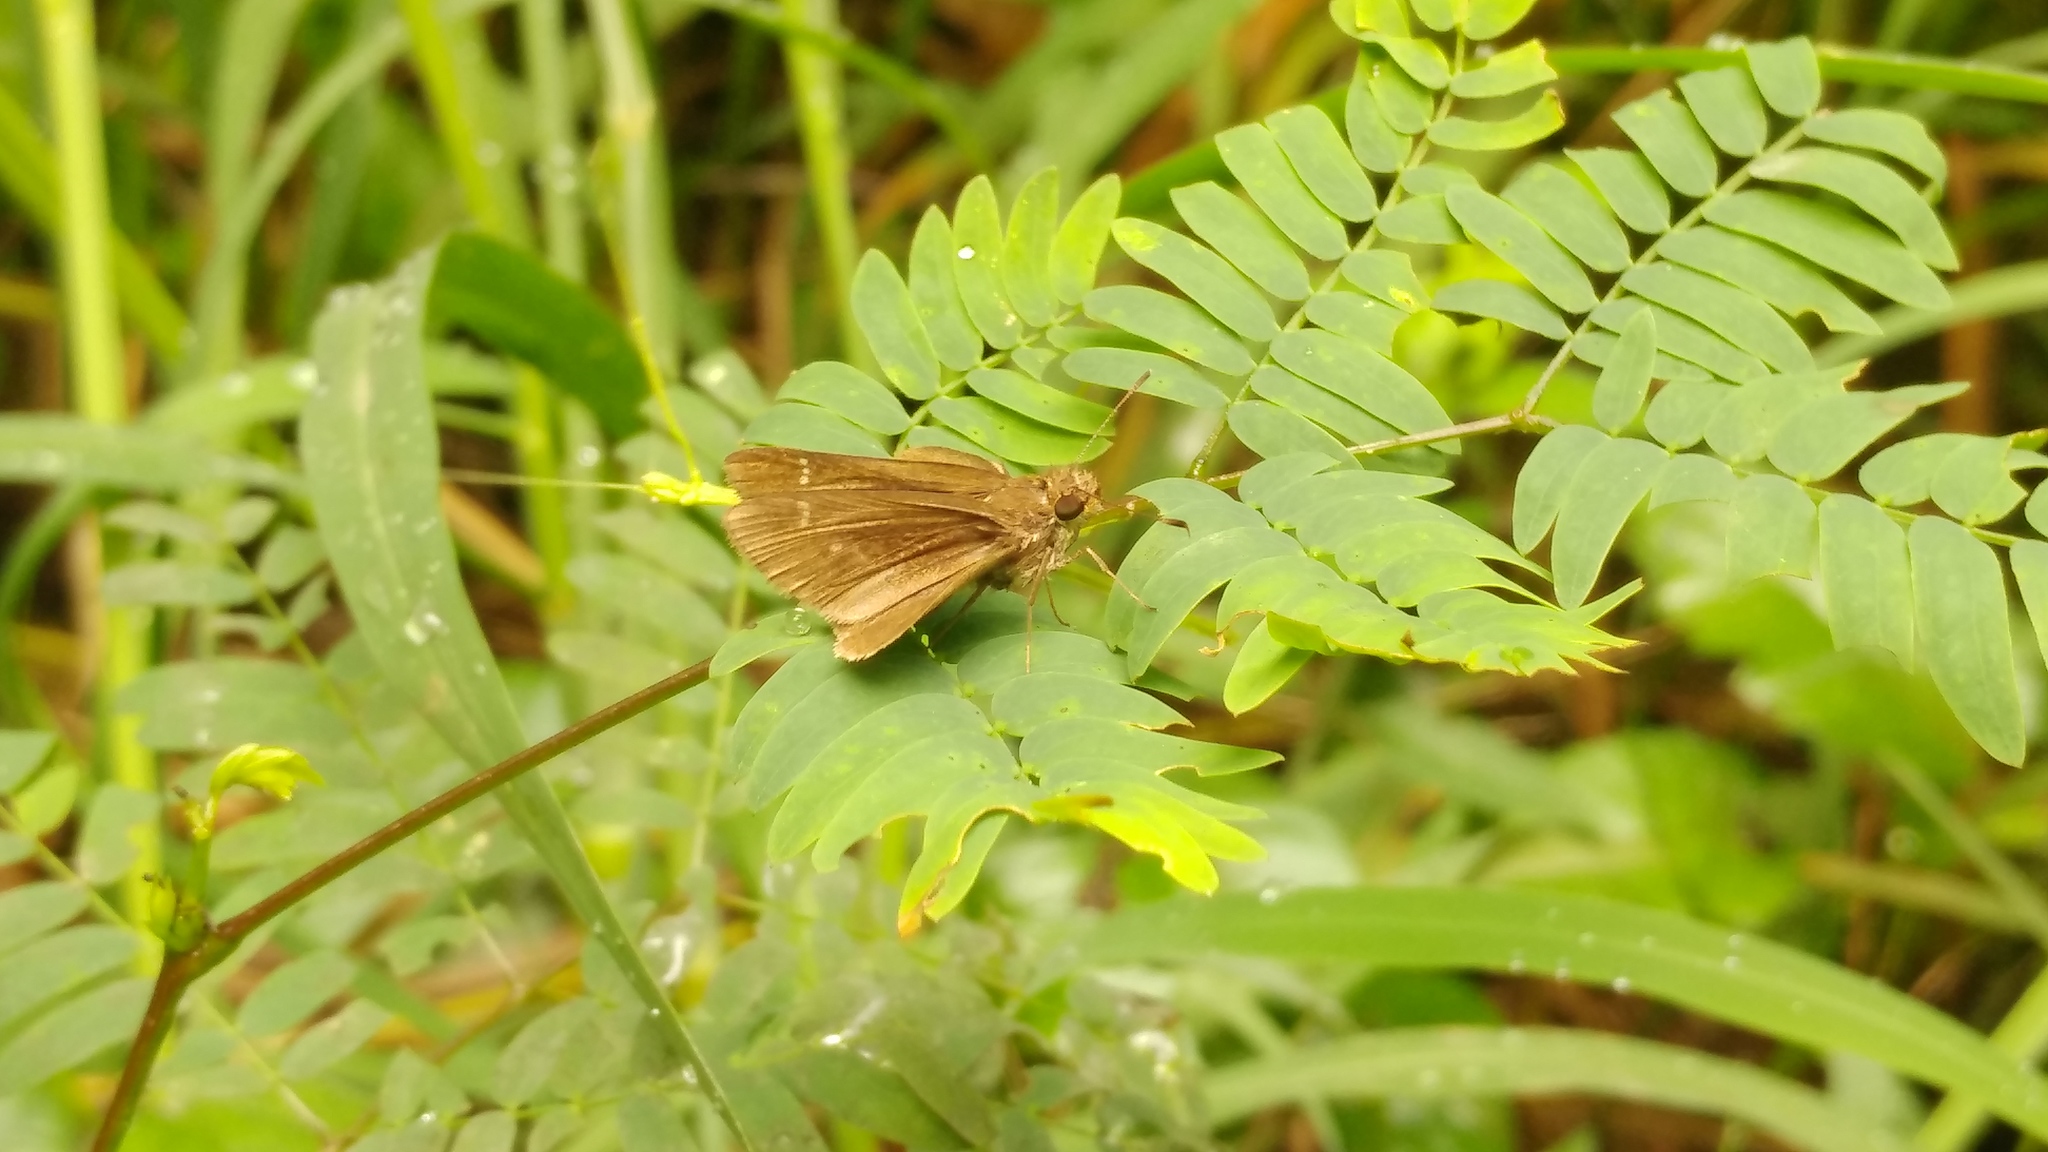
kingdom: Animalia
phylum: Arthropoda
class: Insecta
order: Lepidoptera
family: Hesperiidae
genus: Lerodea
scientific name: Lerodea eufala
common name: Eufala skipper
